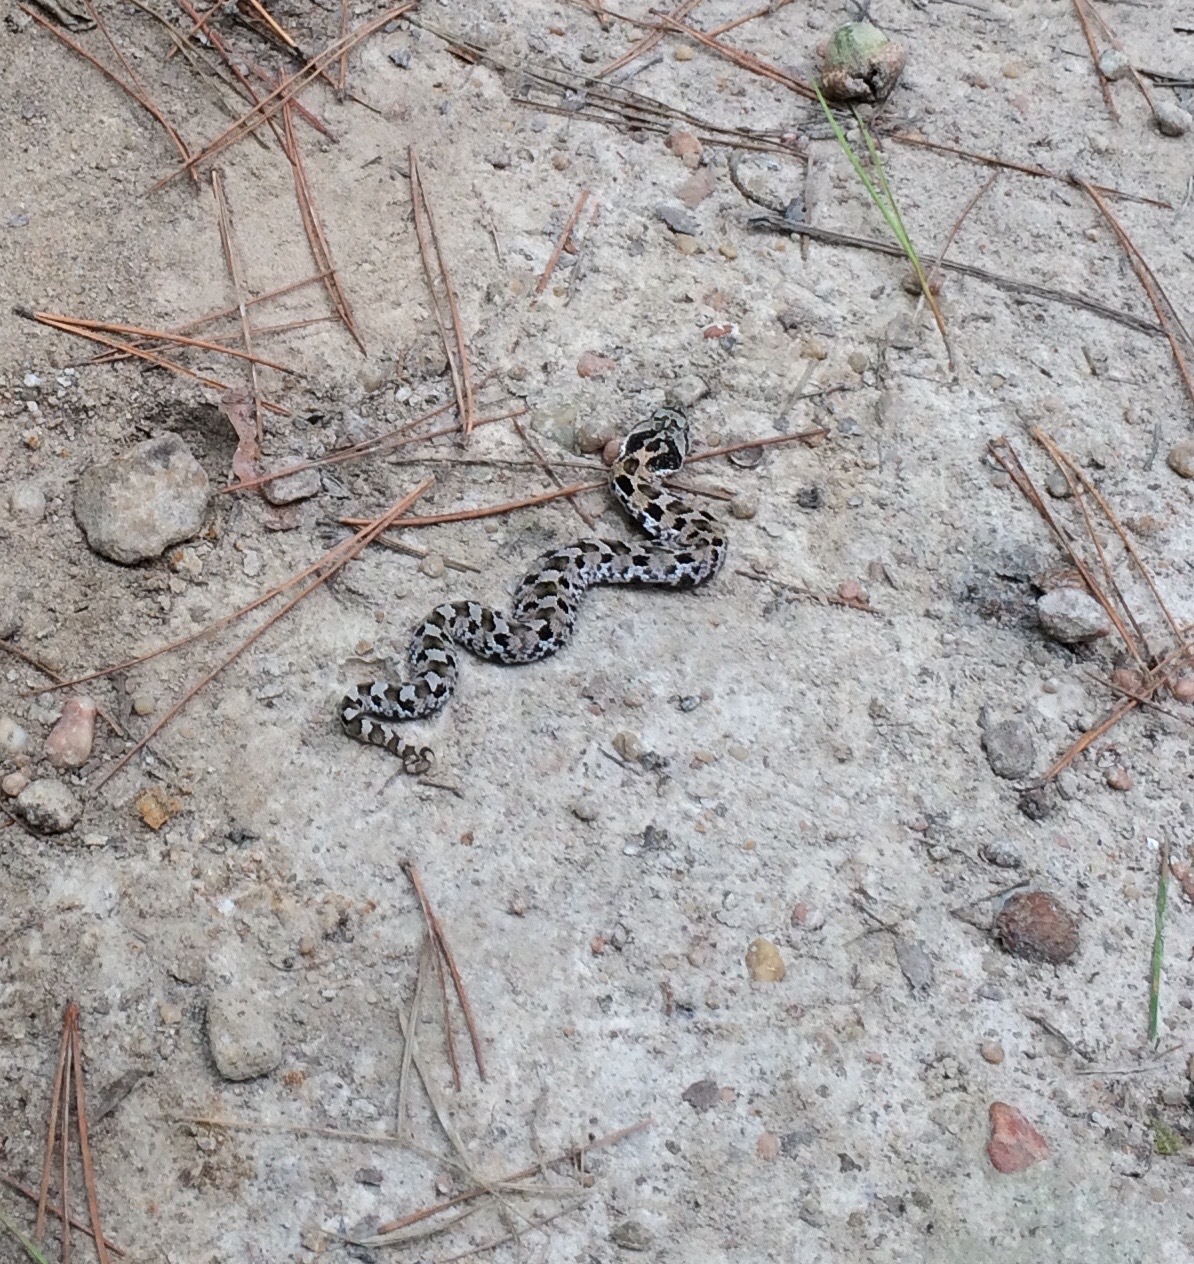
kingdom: Animalia
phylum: Chordata
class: Squamata
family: Colubridae
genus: Heterodon
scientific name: Heterodon platirhinos
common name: Eastern hognose snake
